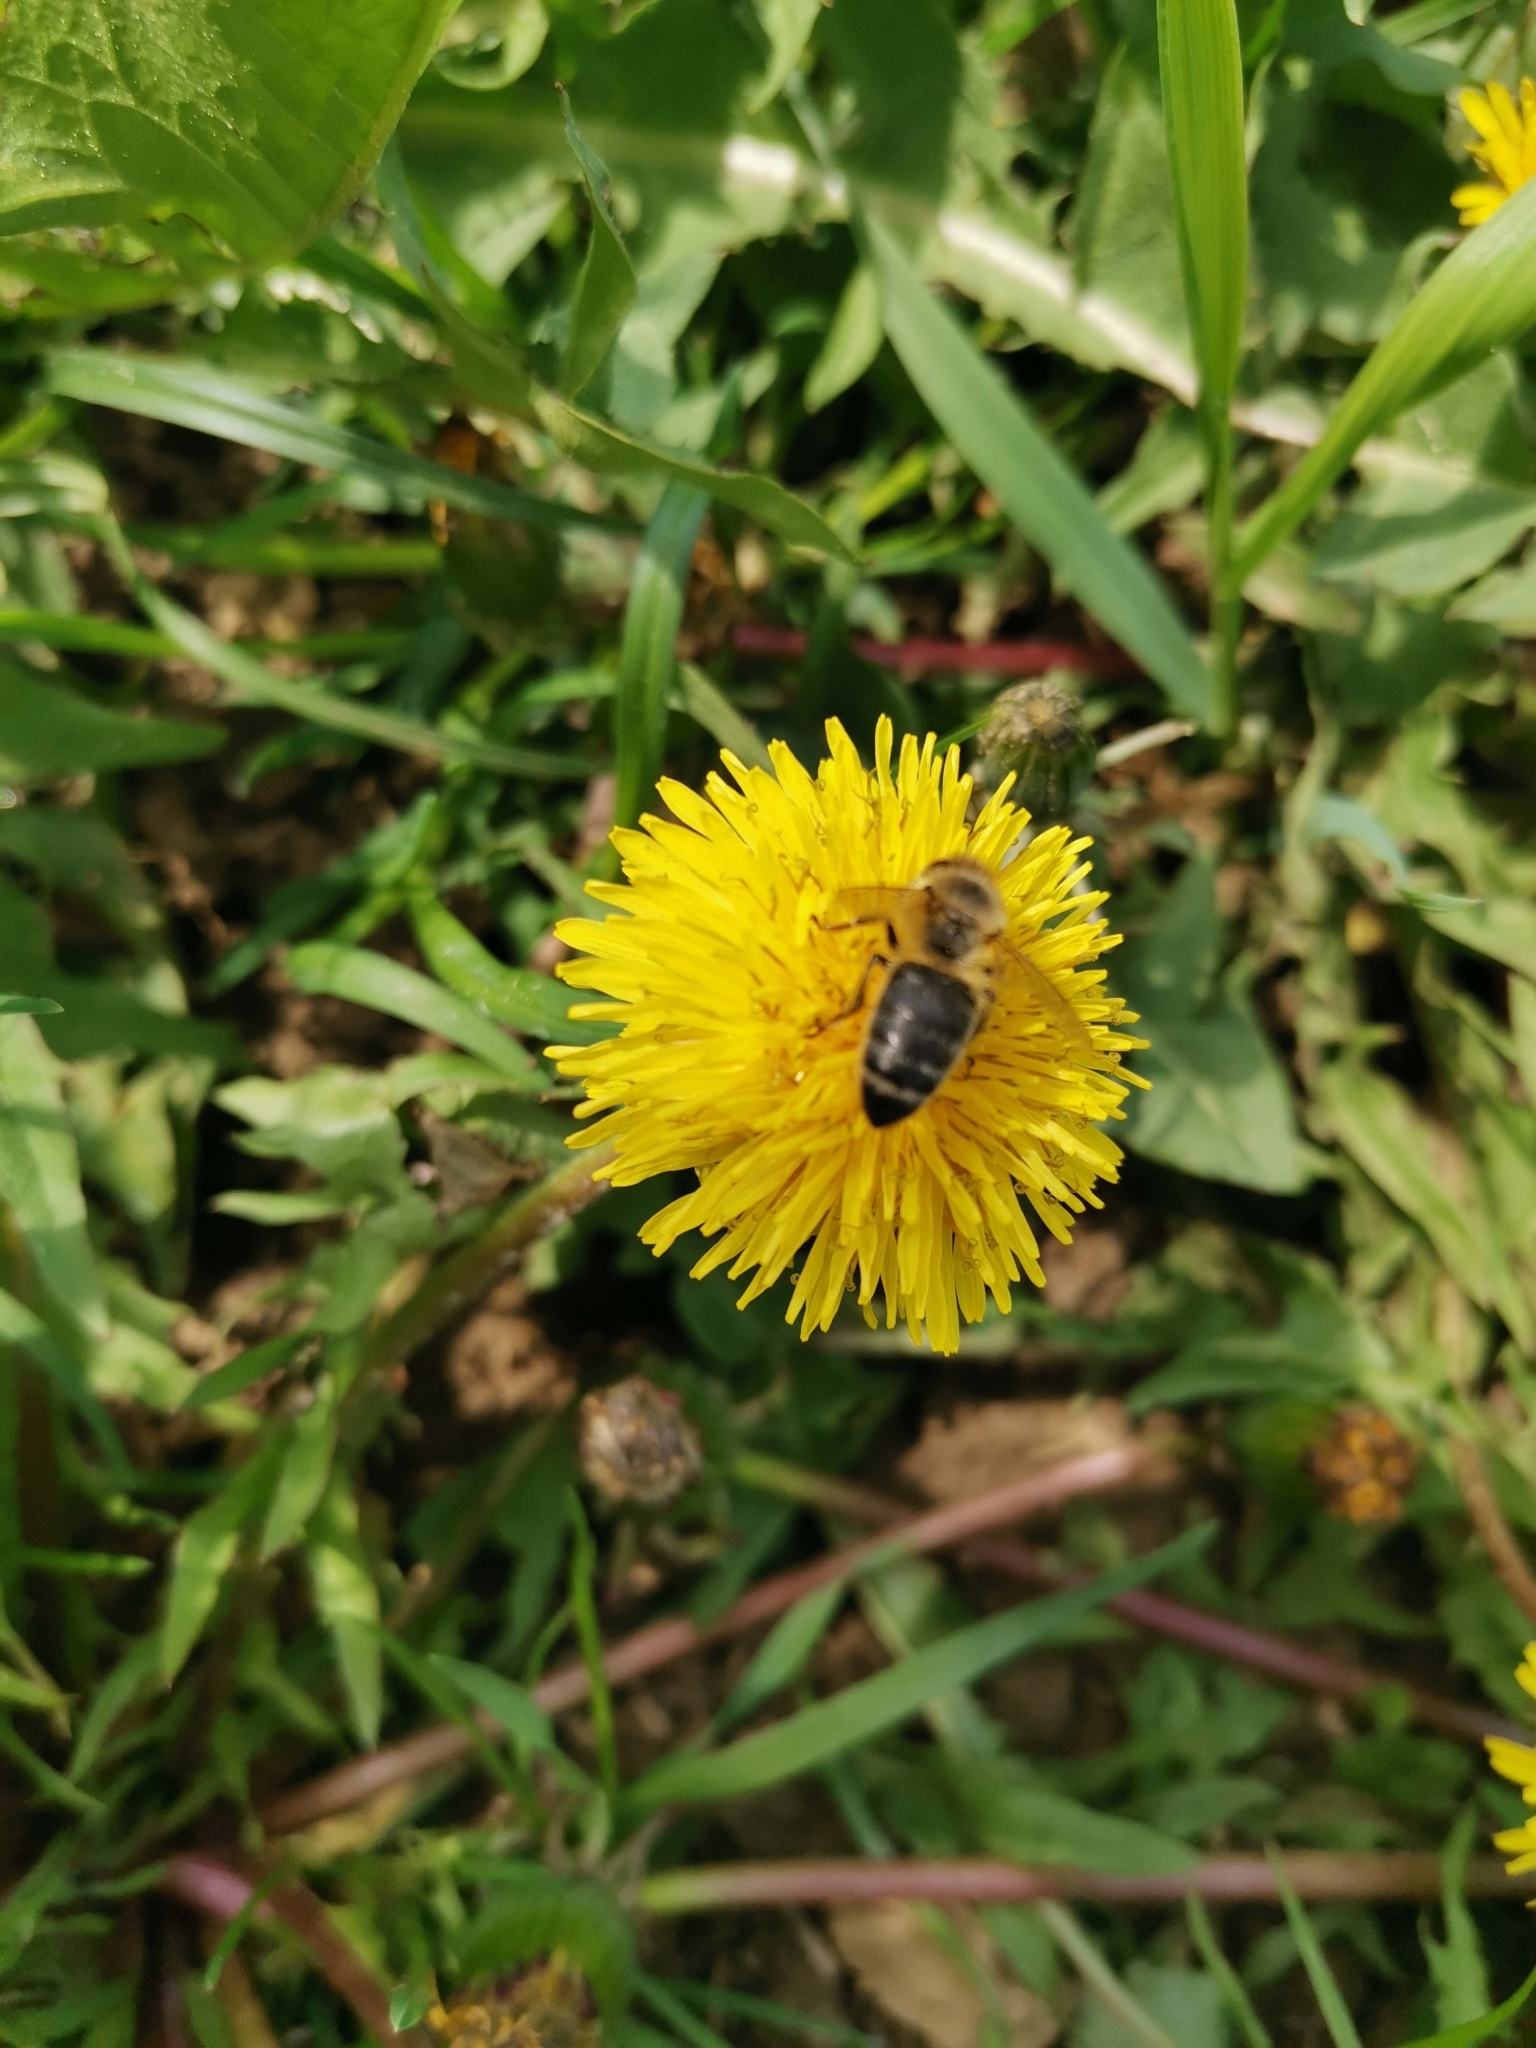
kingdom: Animalia
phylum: Arthropoda
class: Insecta
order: Hymenoptera
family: Apidae
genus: Apis
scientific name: Apis mellifera
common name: Honey bee
